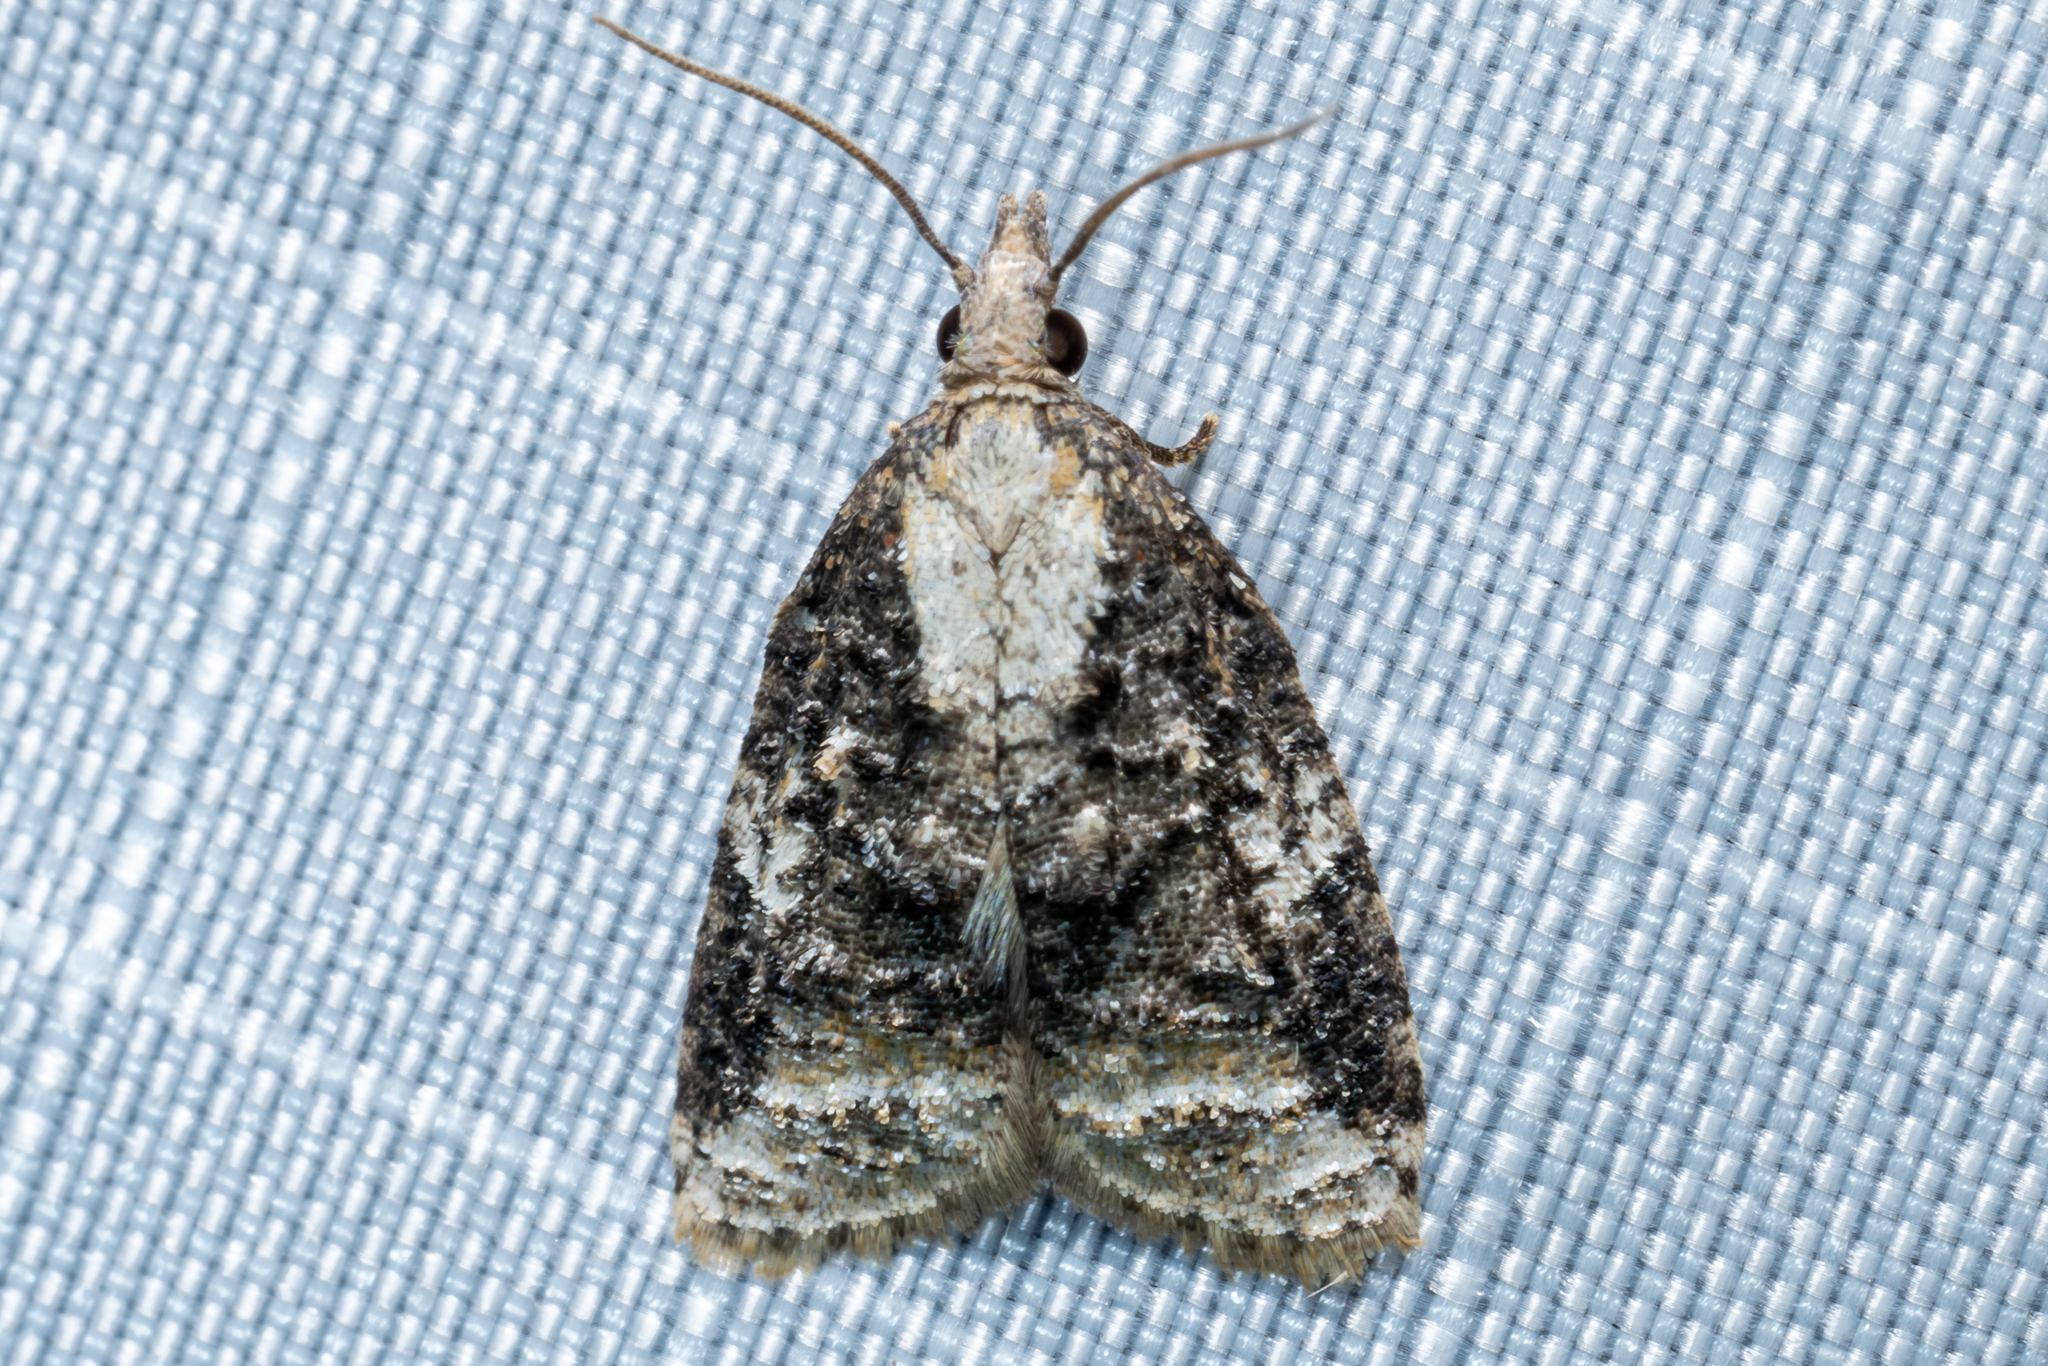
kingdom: Animalia
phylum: Arthropoda
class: Insecta
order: Lepidoptera
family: Tortricidae
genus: Platynota
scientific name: Platynota exasperatana
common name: Exasperating platynota moth
